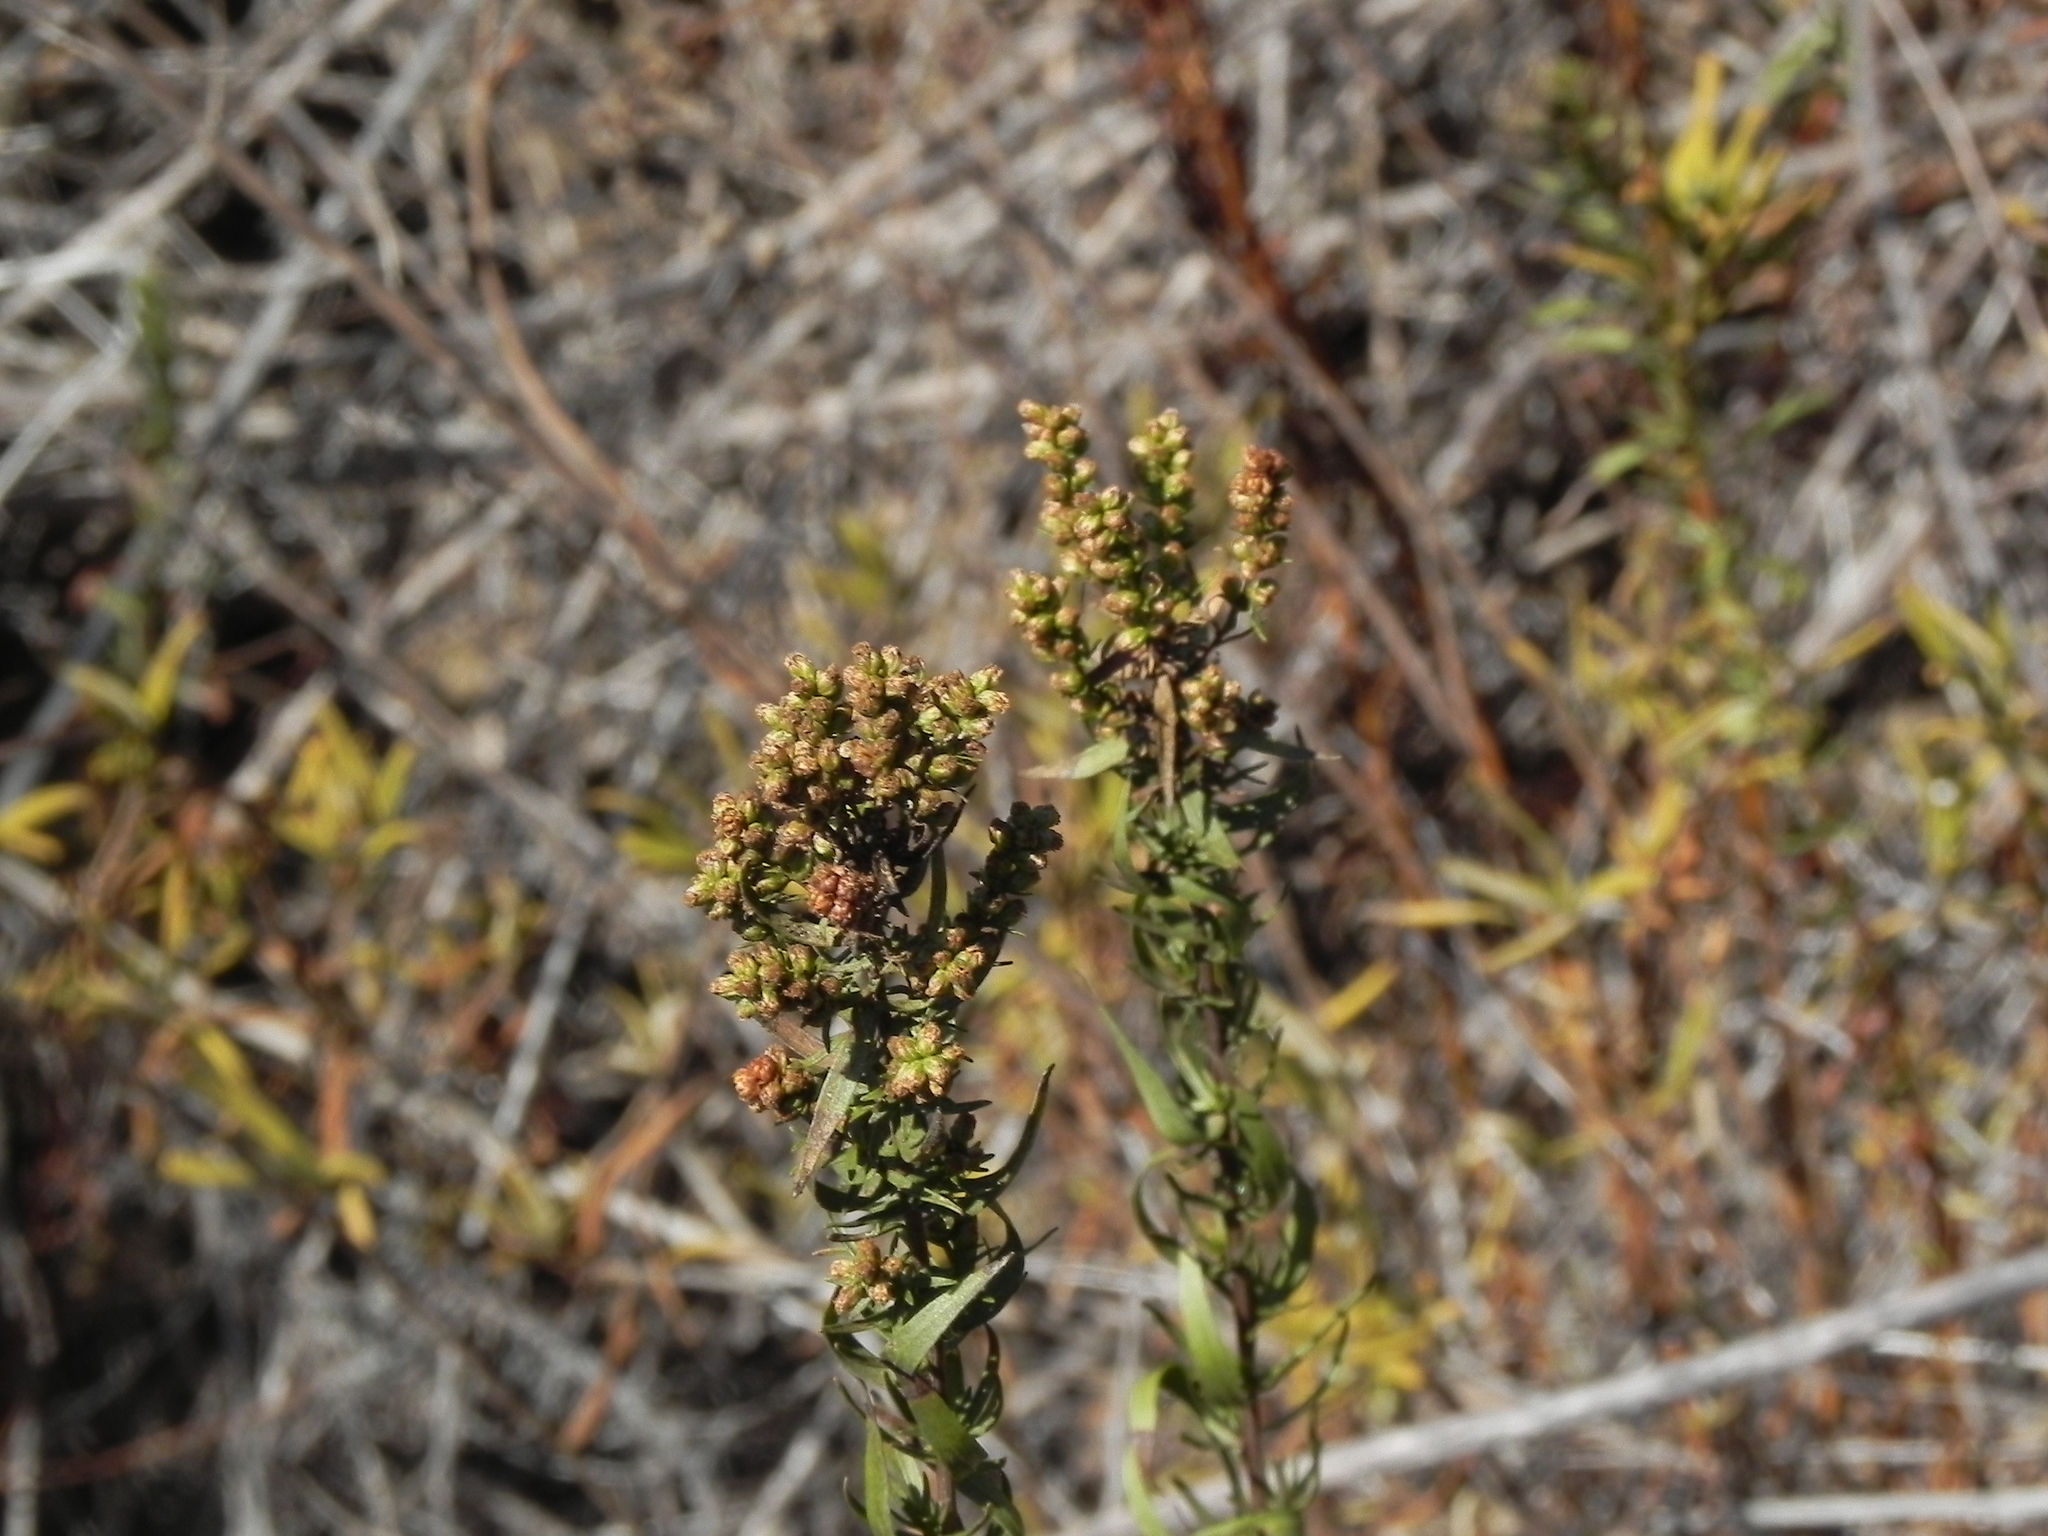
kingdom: Plantae
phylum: Tracheophyta
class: Magnoliopsida
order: Asterales
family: Asteraceae
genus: Artemisia
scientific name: Artemisia dracunculus
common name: Tarragon
